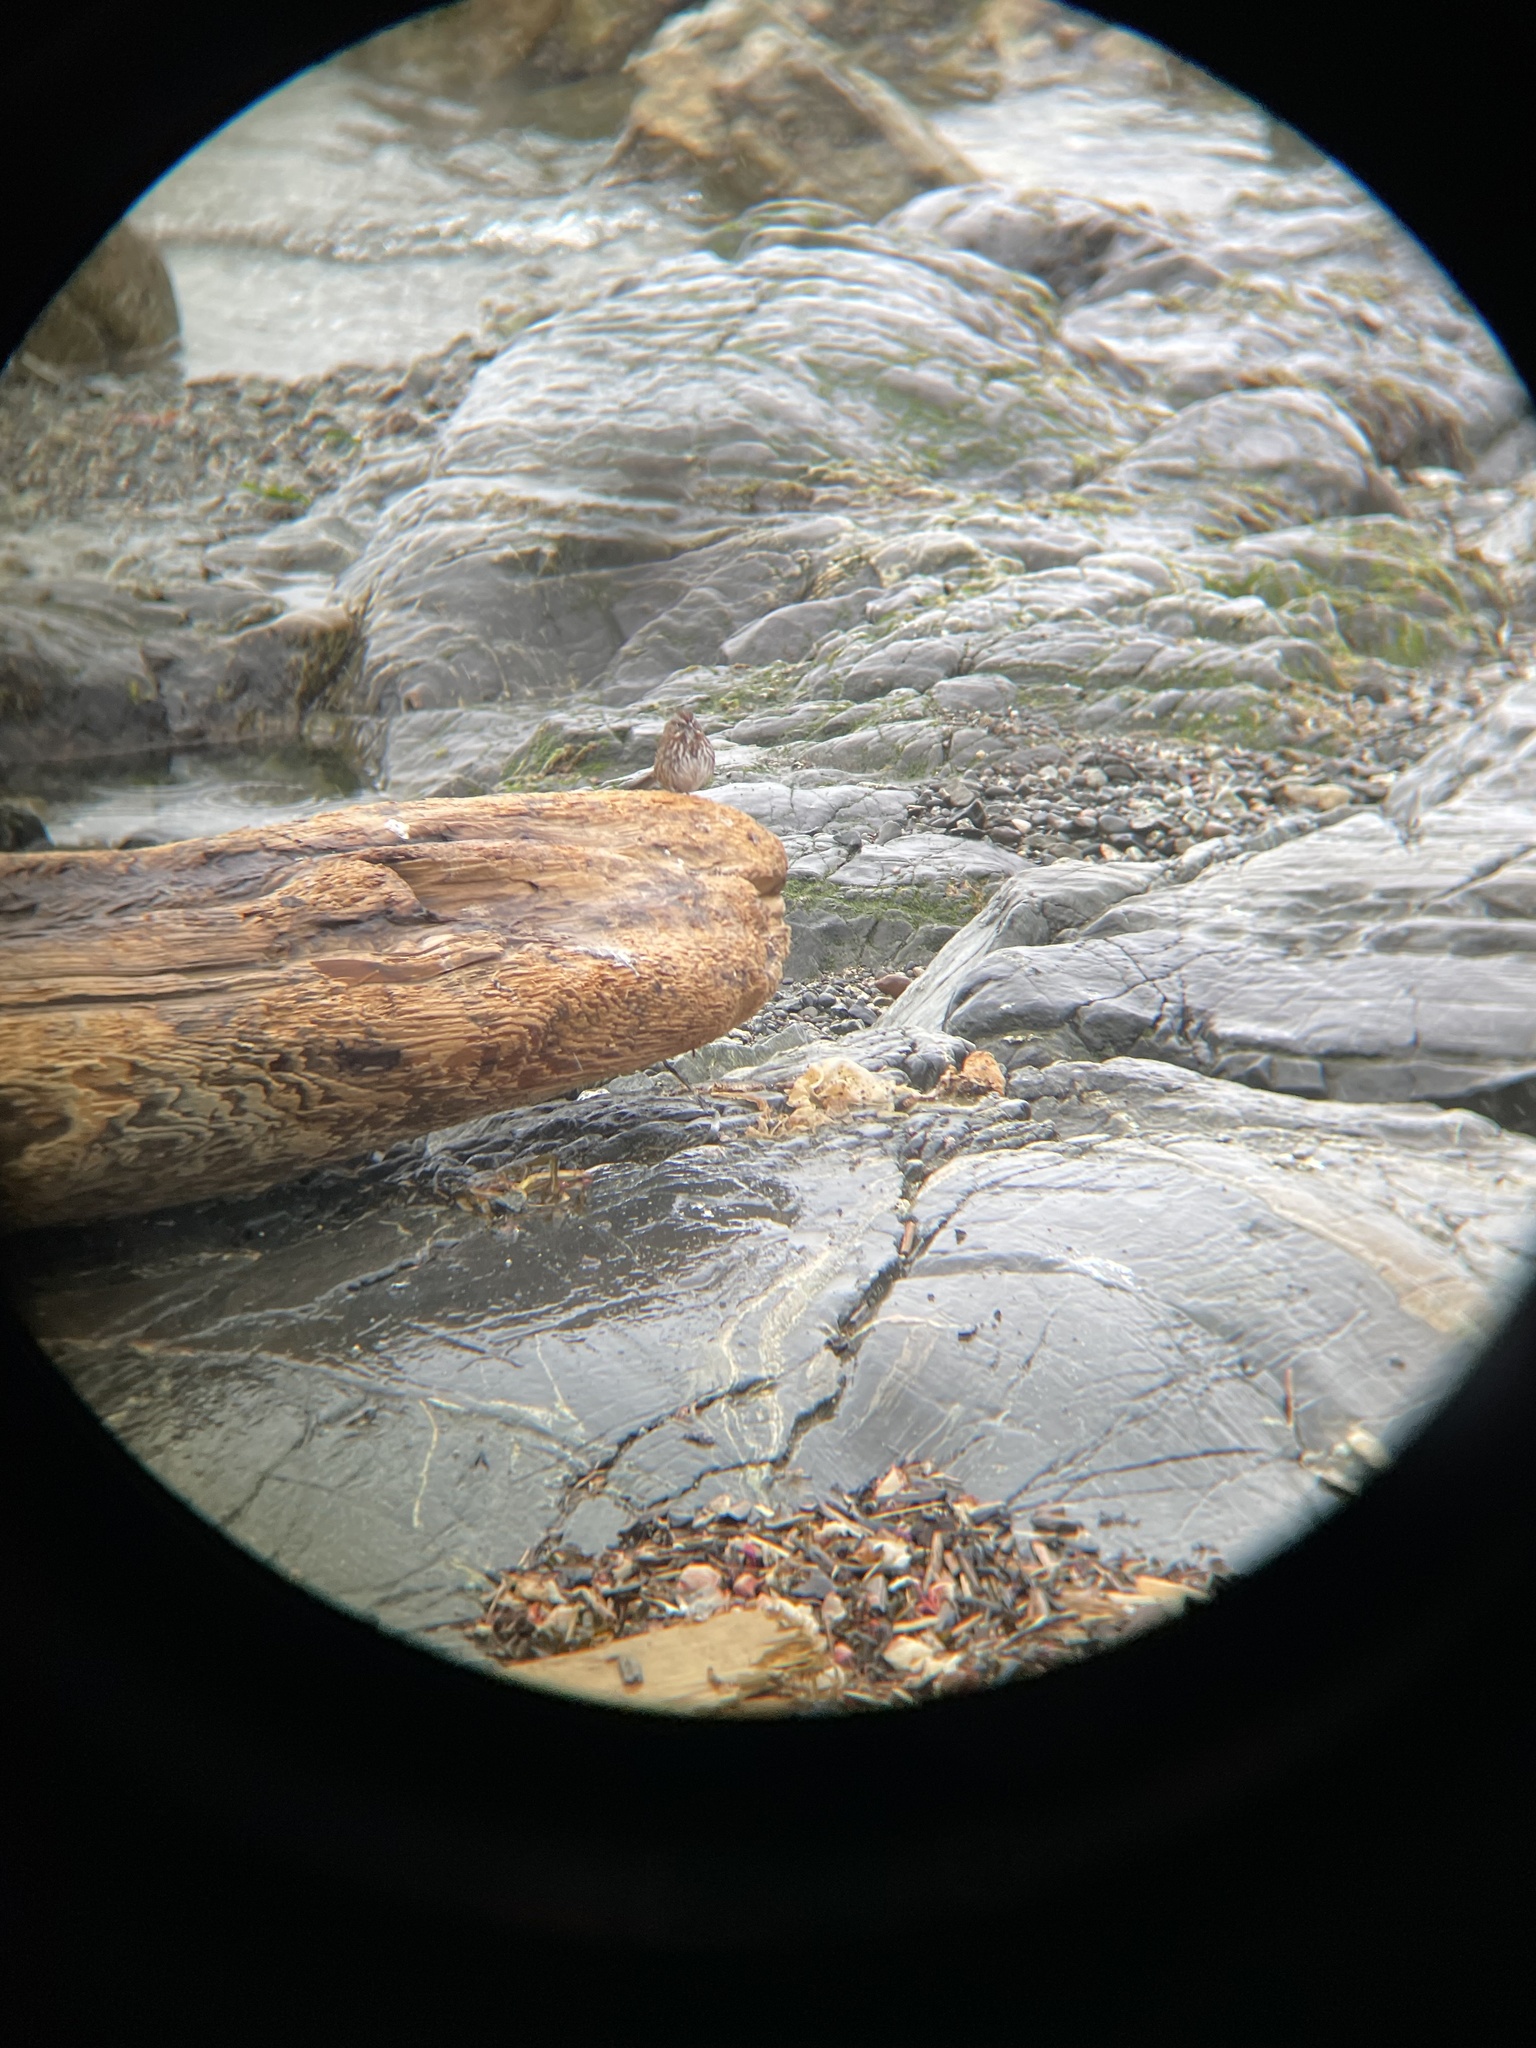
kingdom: Animalia
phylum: Chordata
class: Aves
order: Passeriformes
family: Passerellidae
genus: Melospiza
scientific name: Melospiza melodia
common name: Song sparrow
